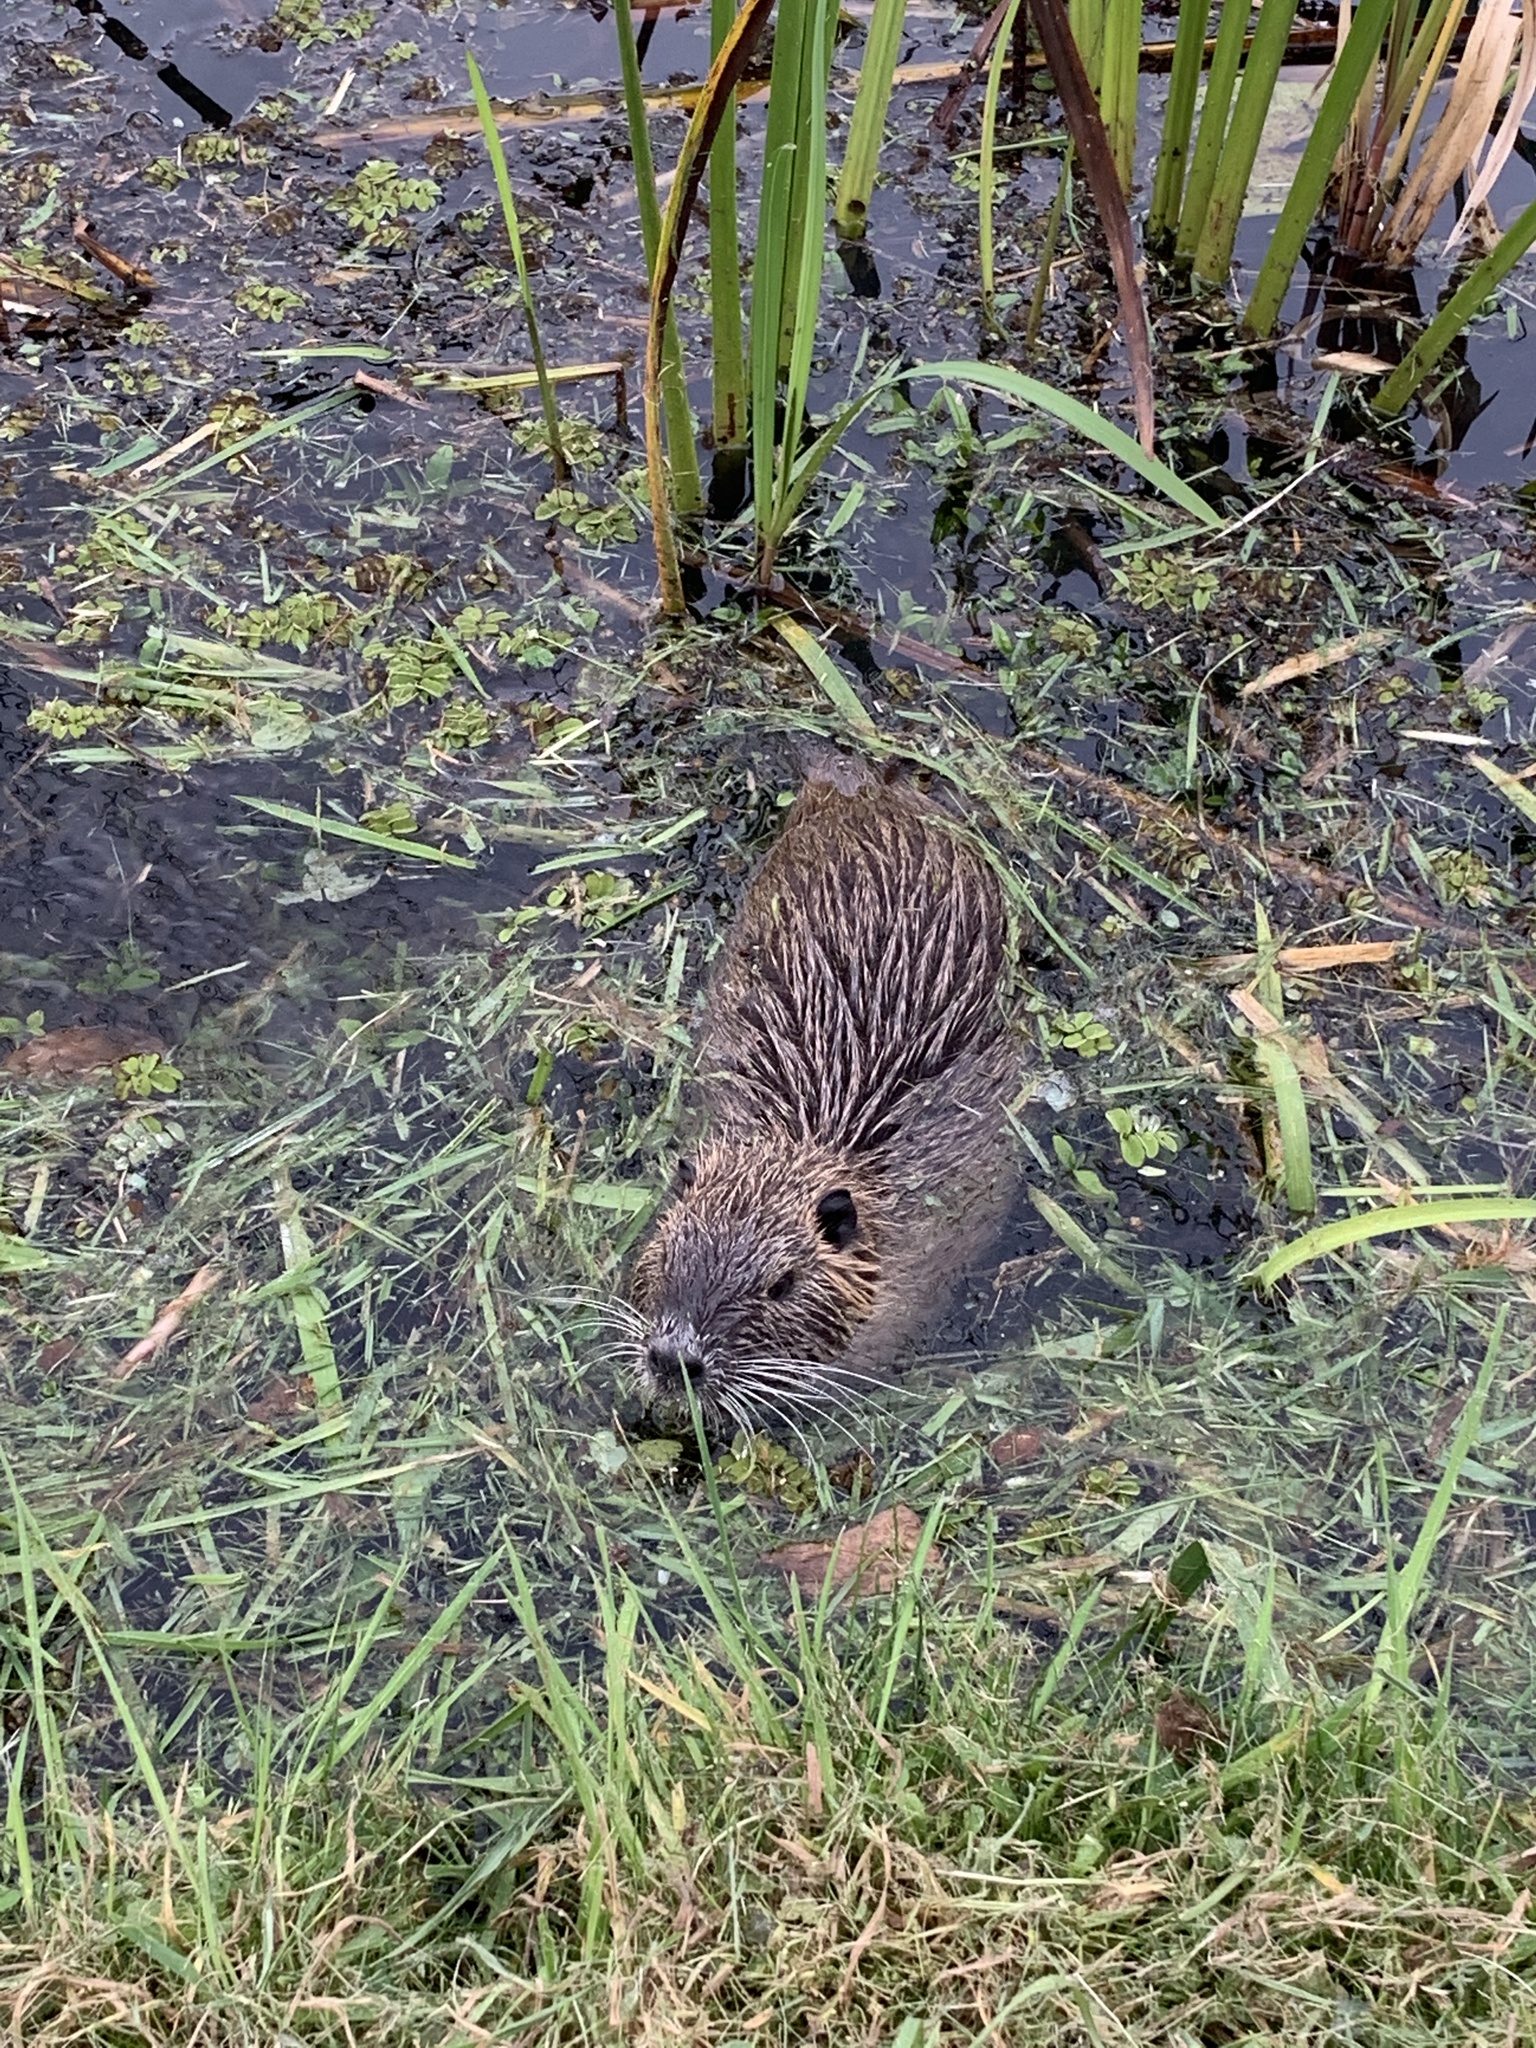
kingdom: Animalia
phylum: Chordata
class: Mammalia
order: Rodentia
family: Myocastoridae
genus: Myocastor
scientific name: Myocastor coypus
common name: Coypu
